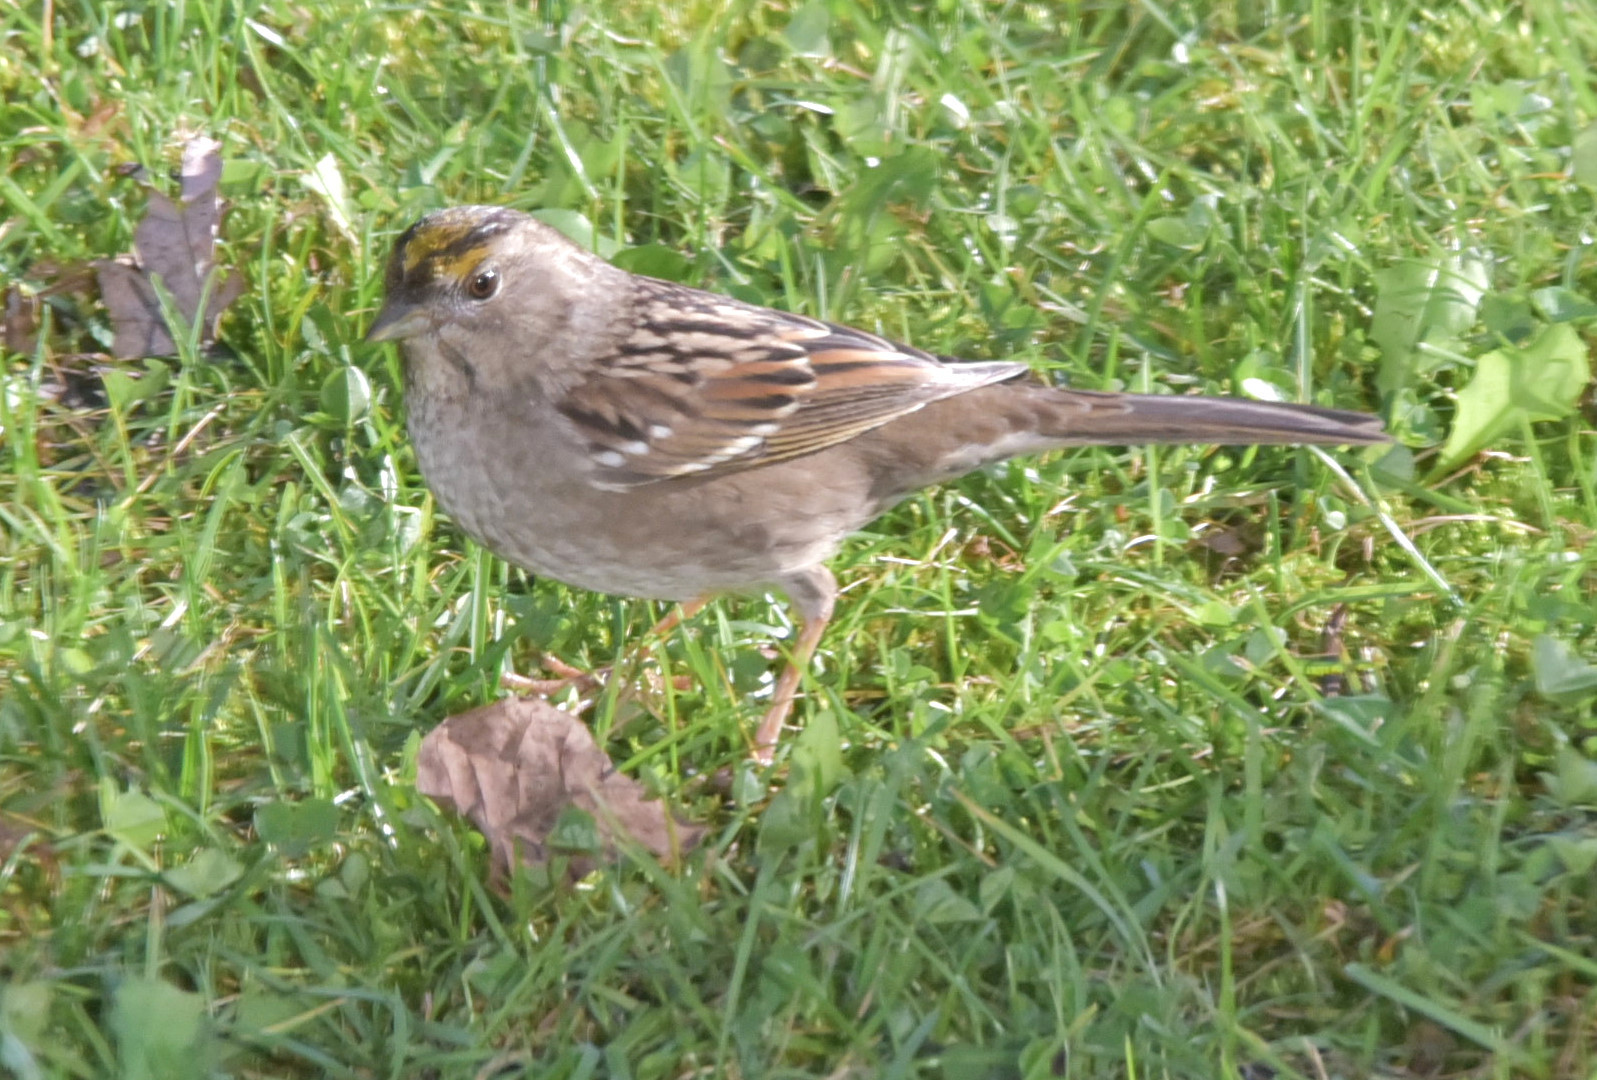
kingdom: Animalia
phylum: Chordata
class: Aves
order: Passeriformes
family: Passerellidae
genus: Zonotrichia
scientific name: Zonotrichia atricapilla
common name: Golden-crowned sparrow
